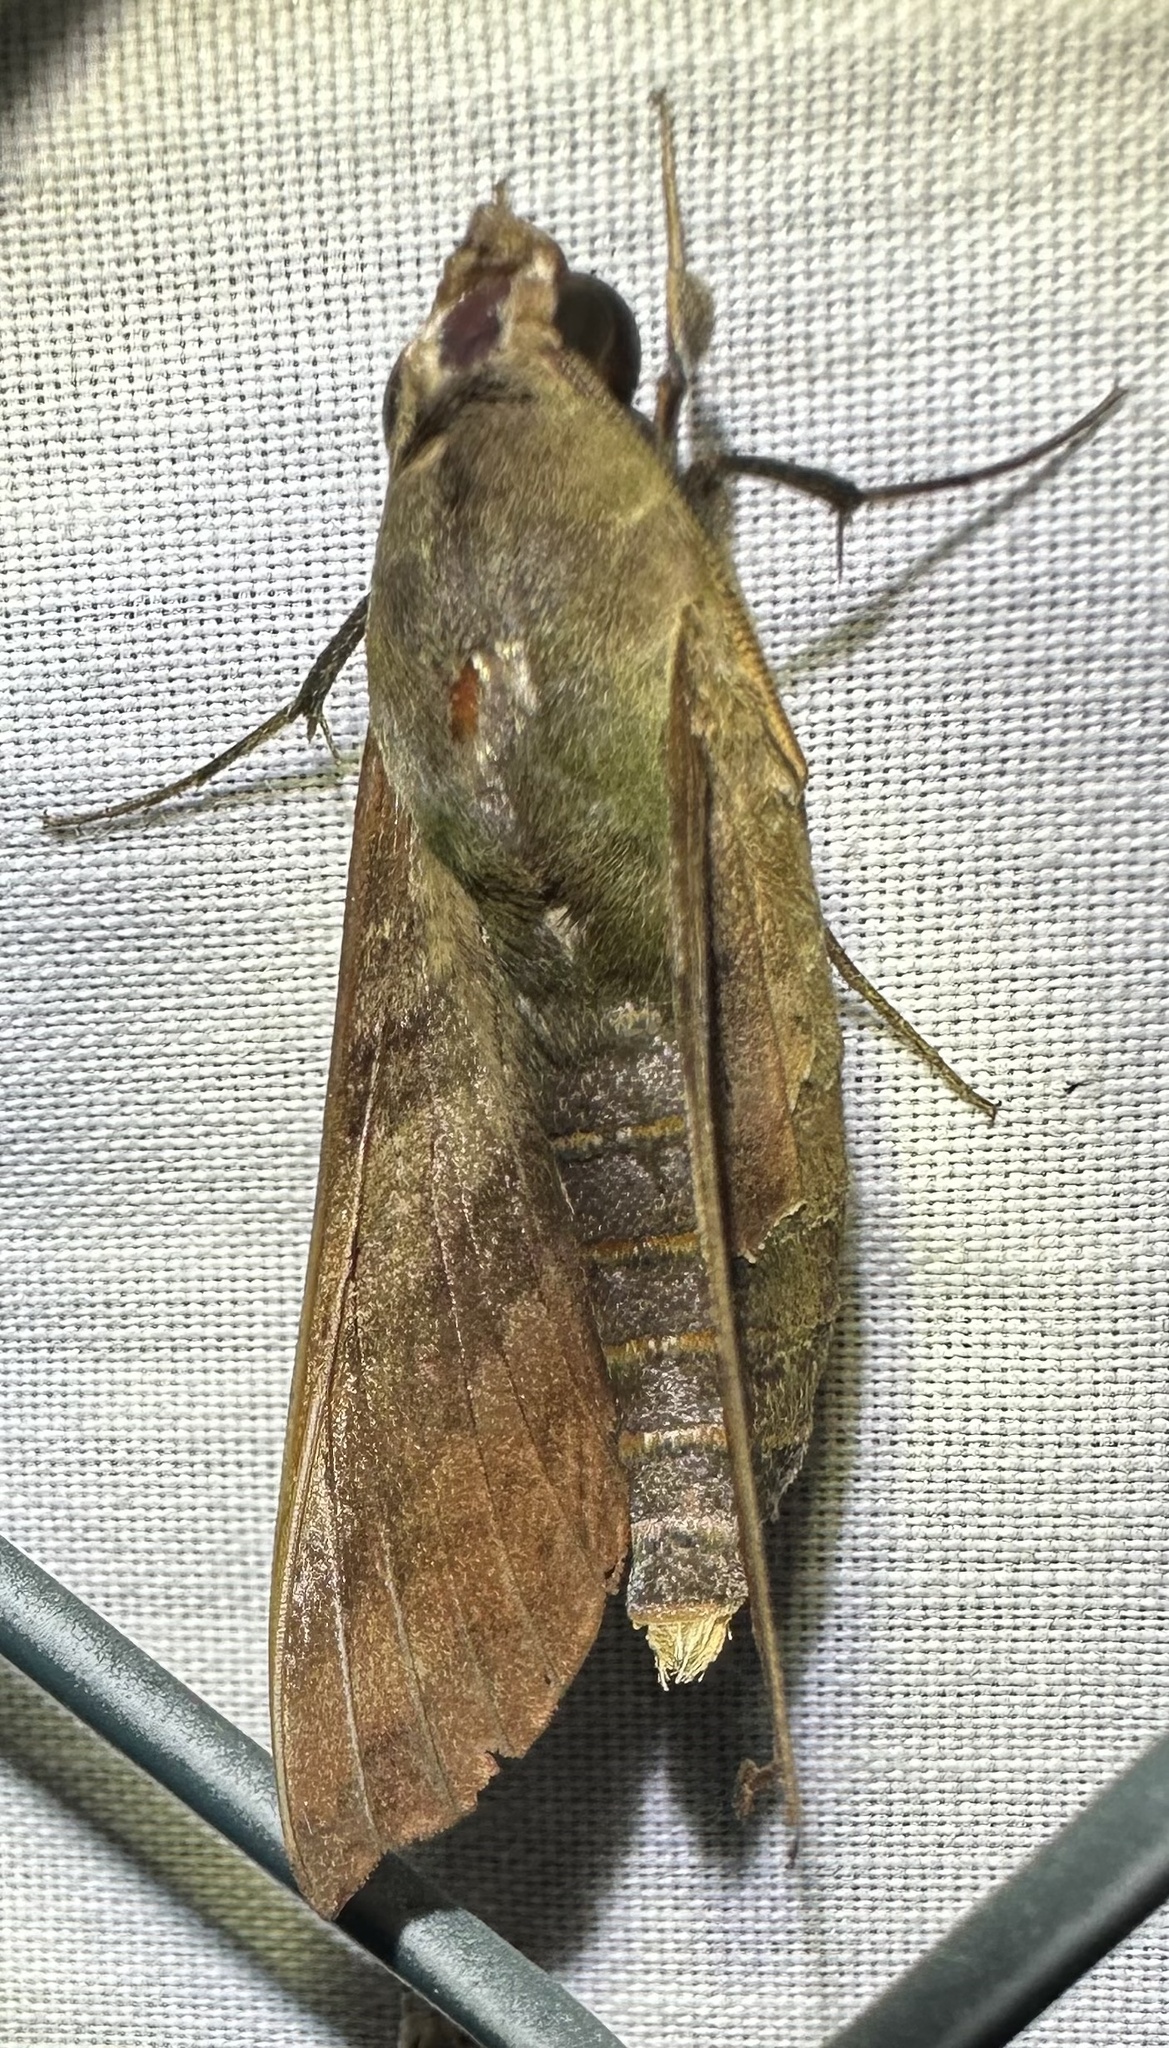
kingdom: Animalia
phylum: Arthropoda
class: Insecta
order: Lepidoptera
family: Sphingidae
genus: Temnora
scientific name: Temnora fumosa
